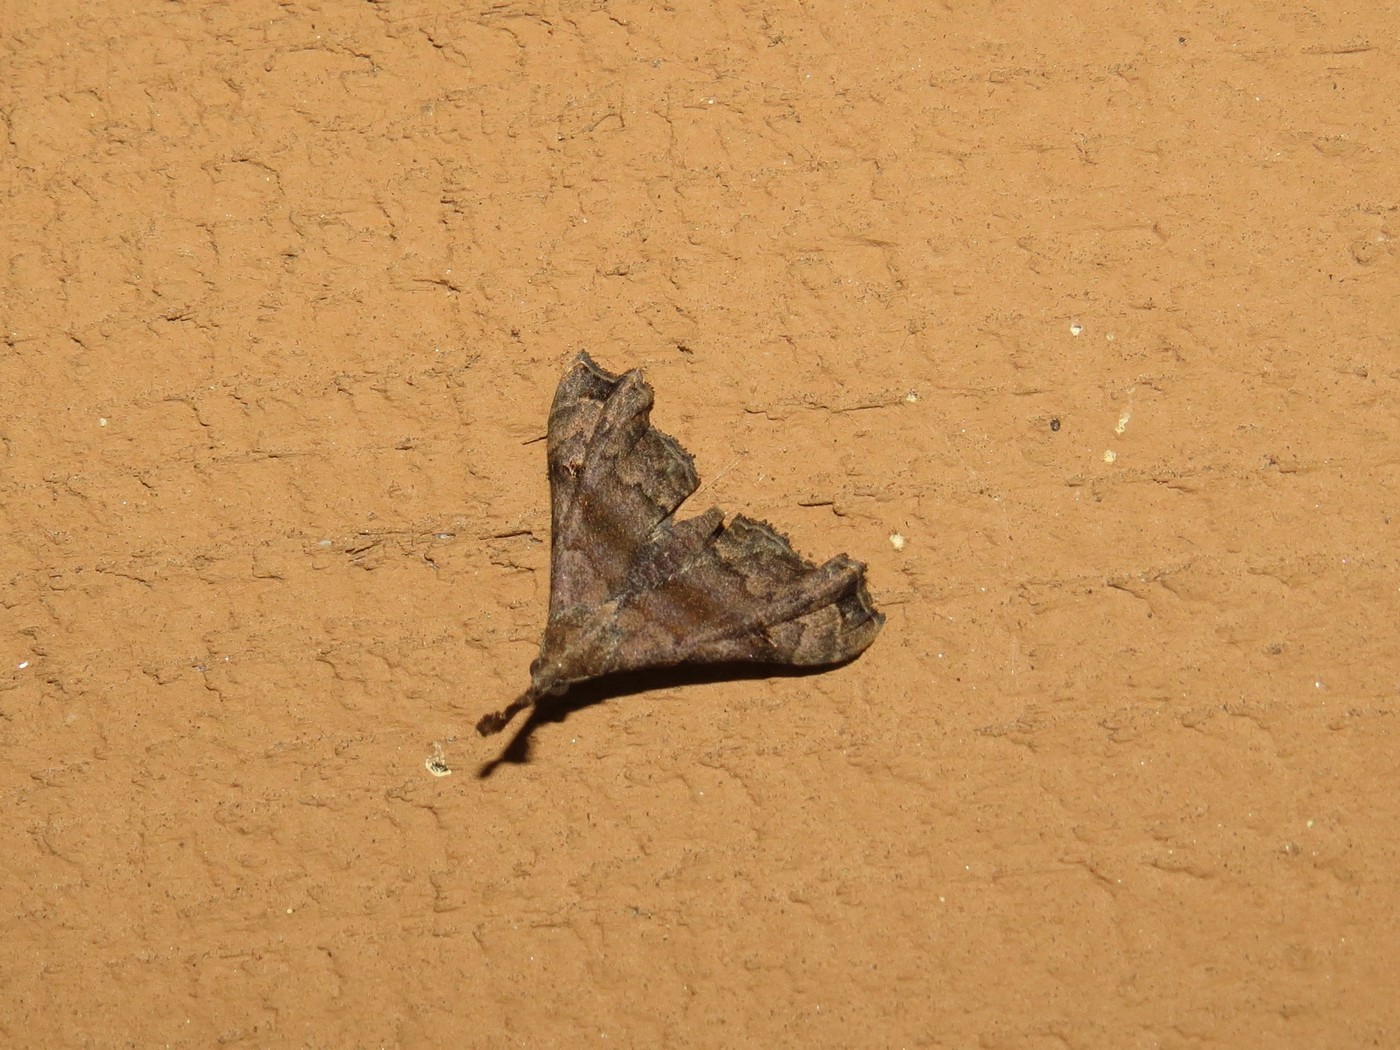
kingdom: Animalia
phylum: Arthropoda
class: Insecta
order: Lepidoptera
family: Erebidae
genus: Palthis
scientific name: Palthis asopialis
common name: Faint-spotted palthis moth
